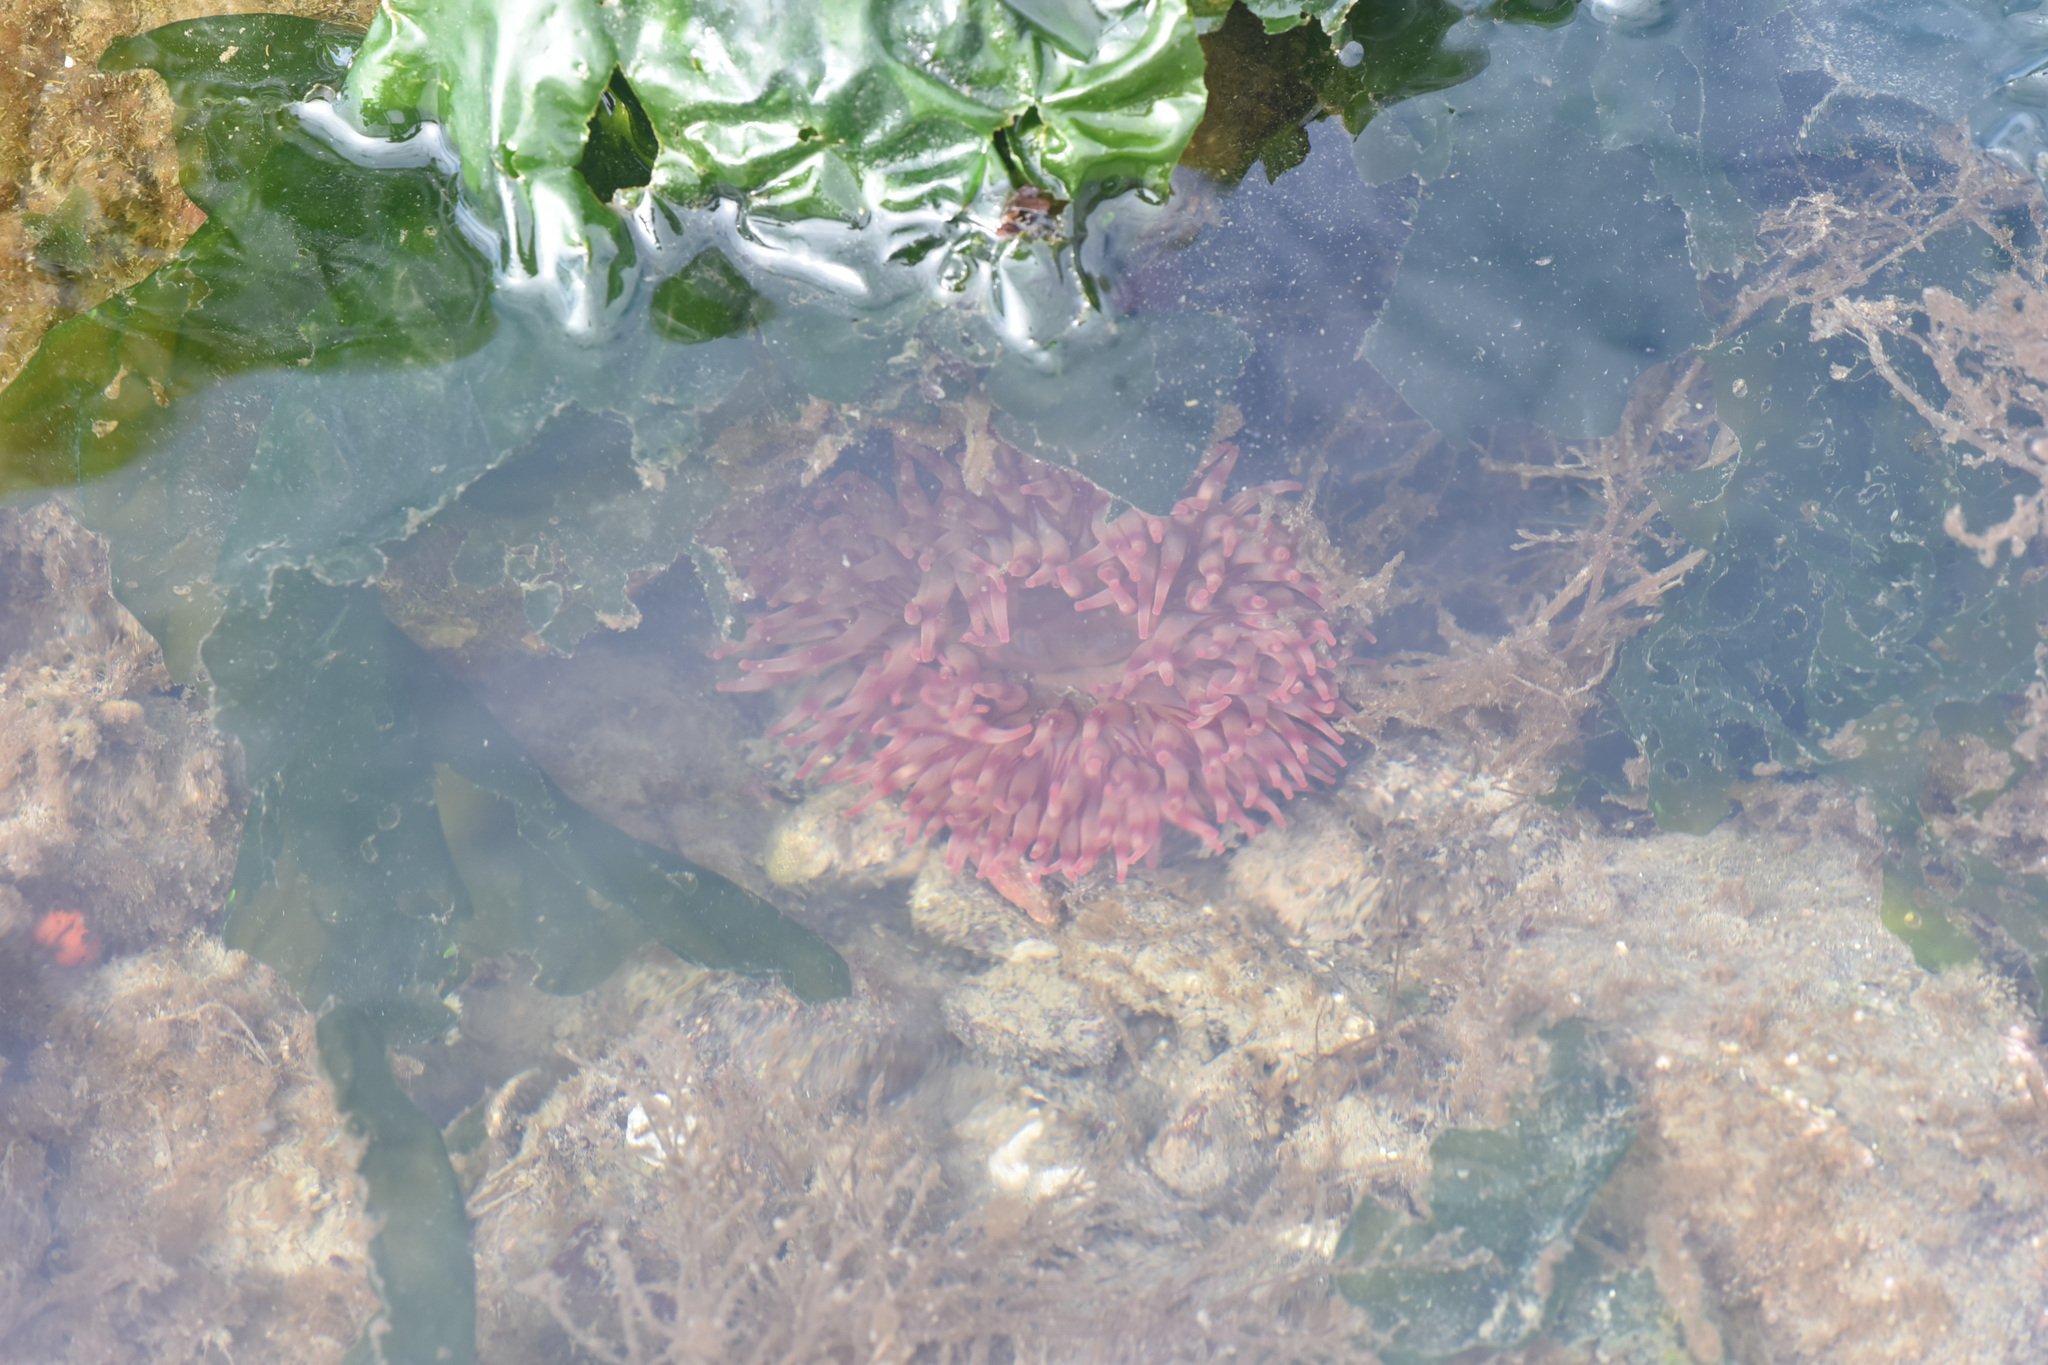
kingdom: Animalia
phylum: Cnidaria
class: Anthozoa
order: Actiniaria
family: Actiniidae
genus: Urticina
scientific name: Urticina grebelnyi
